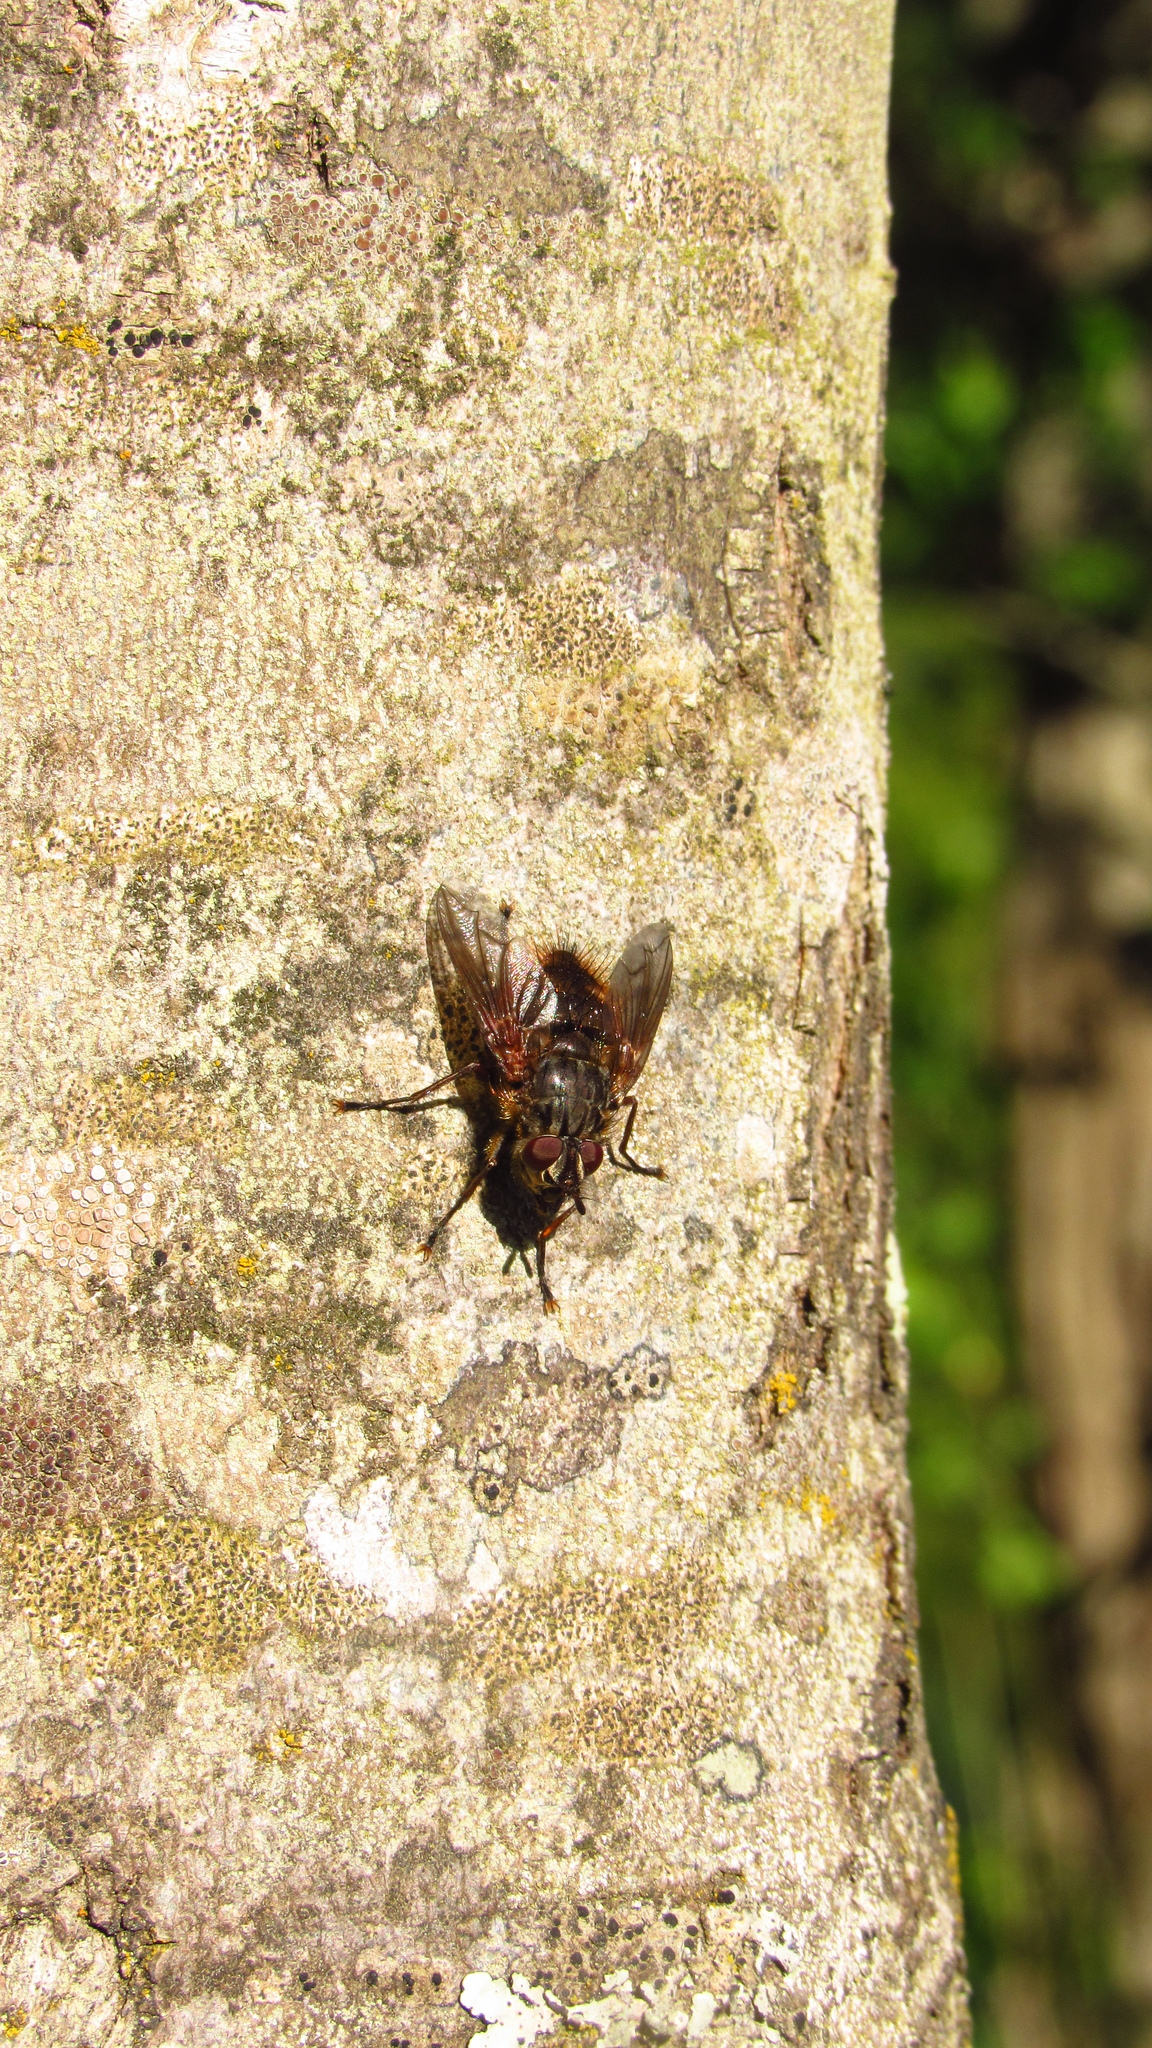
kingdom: Animalia
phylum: Arthropoda
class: Insecta
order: Diptera
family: Tachinidae
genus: Pelycops
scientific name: Pelycops darwini
